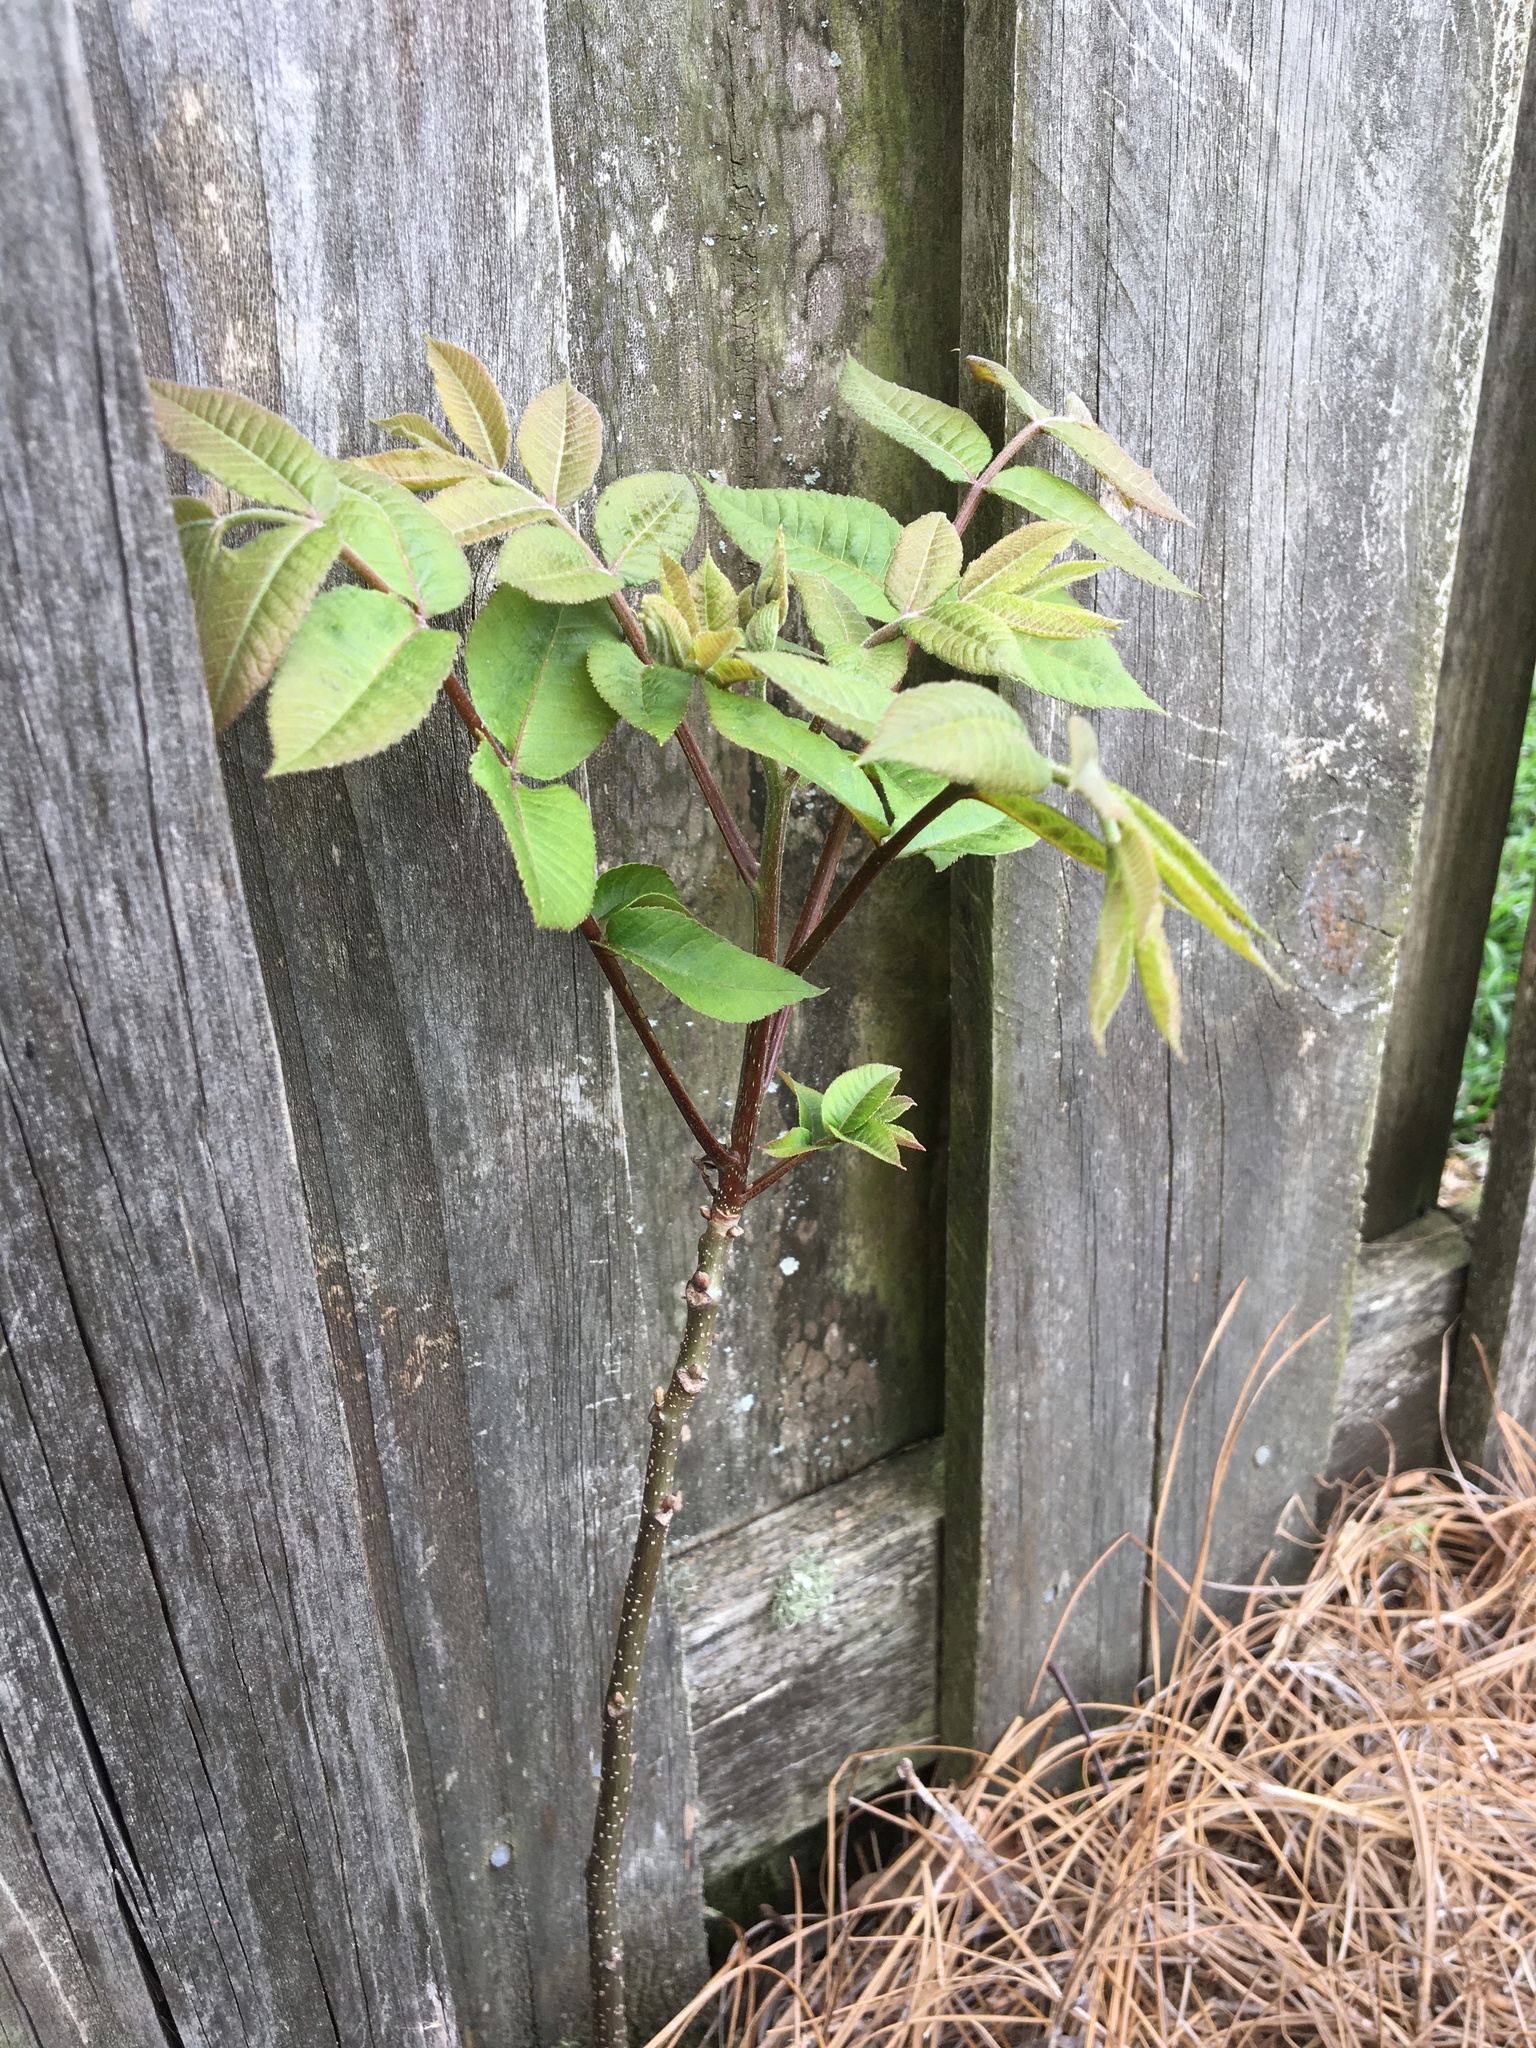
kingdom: Plantae
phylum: Tracheophyta
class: Magnoliopsida
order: Fagales
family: Juglandaceae
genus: Juglans
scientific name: Juglans nigra
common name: Black walnut
